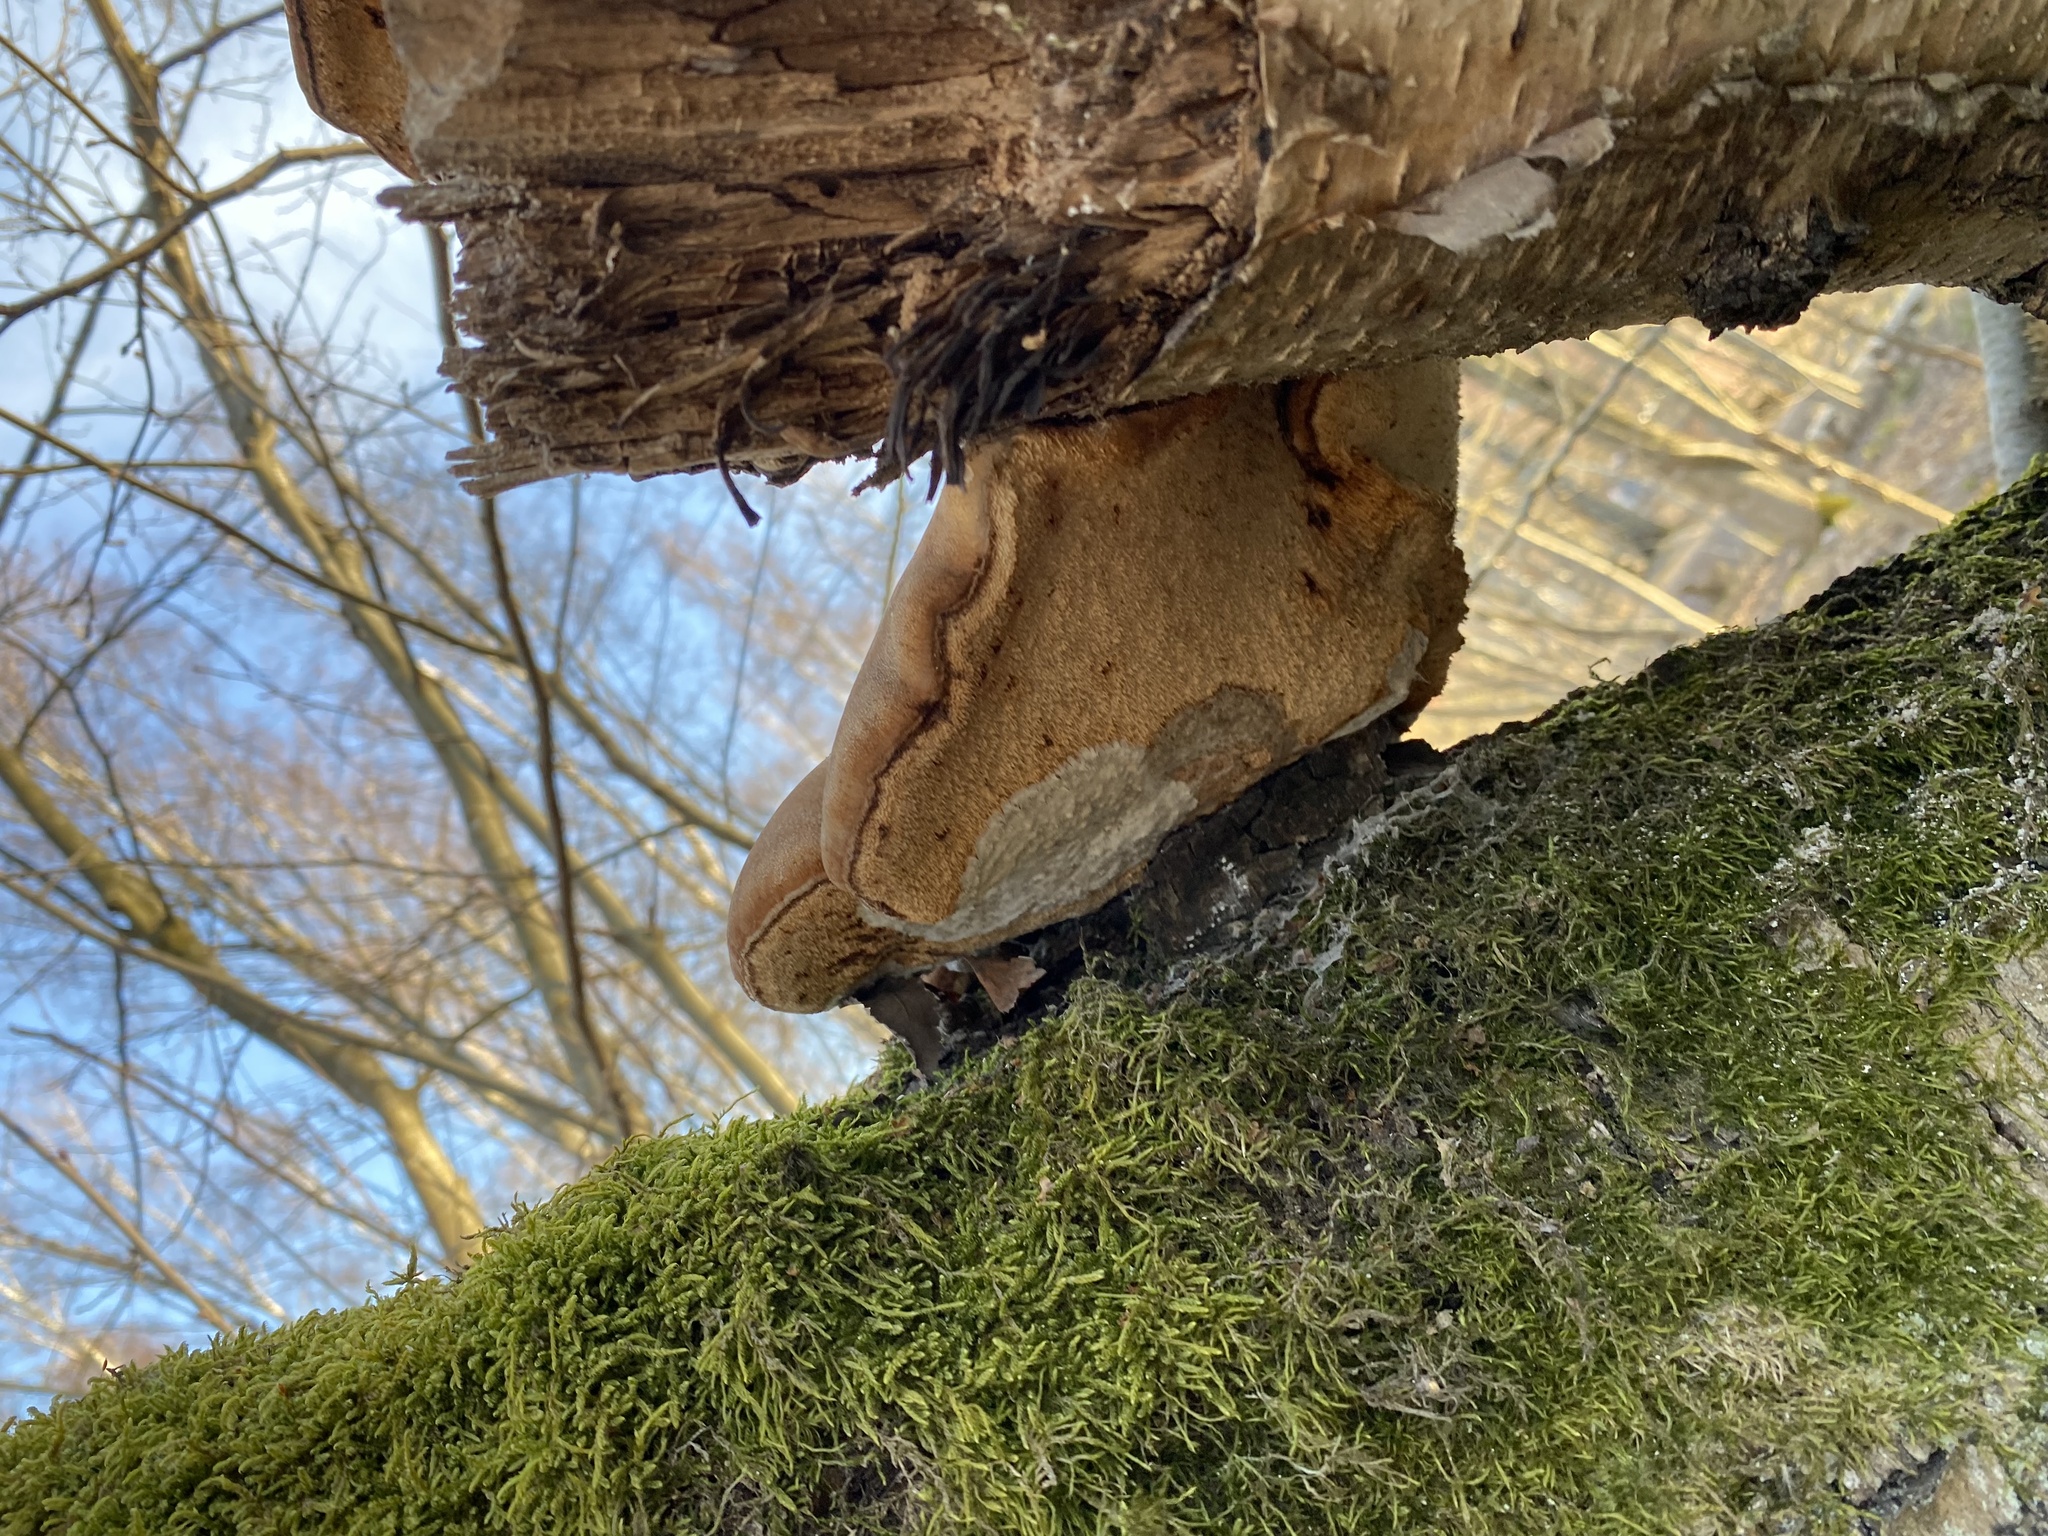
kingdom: Fungi
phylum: Basidiomycota
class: Agaricomycetes
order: Polyporales
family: Fomitopsidaceae
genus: Fomitopsis
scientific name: Fomitopsis betulina
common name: Birch polypore
